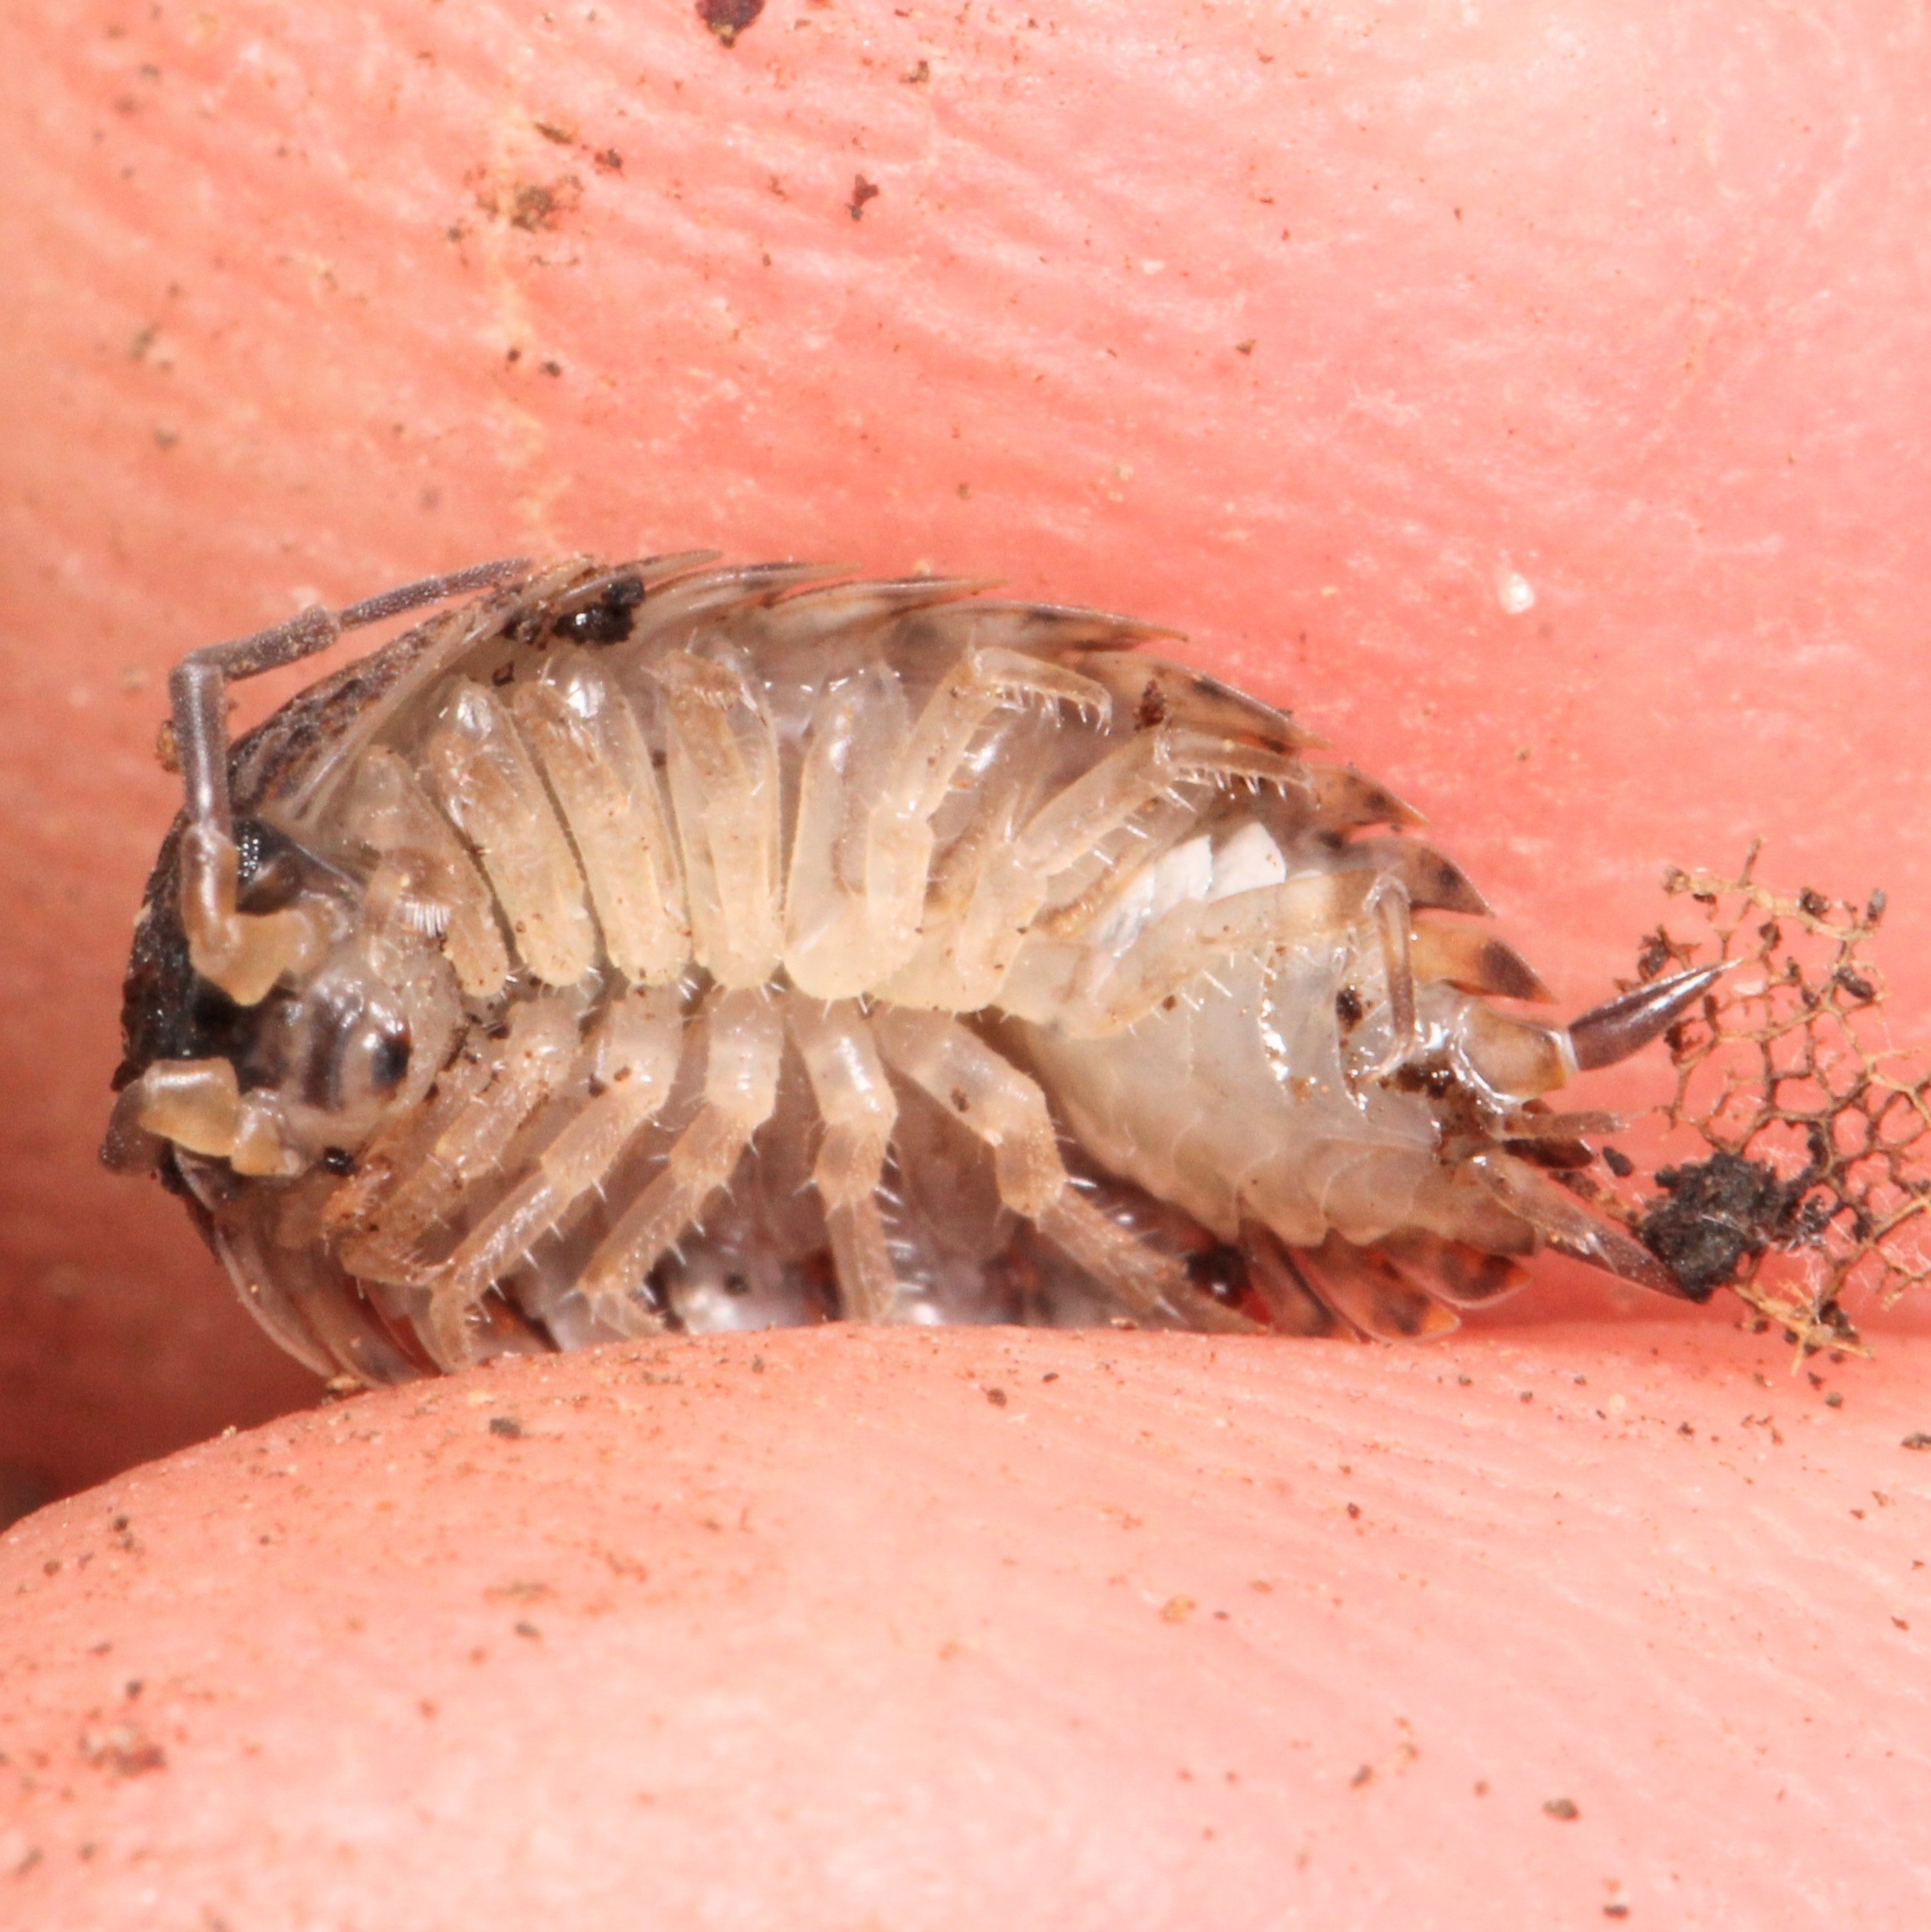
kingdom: Animalia
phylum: Arthropoda
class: Malacostraca
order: Isopoda
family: Trachelipodidae
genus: Trachelipus
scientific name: Trachelipus rathkii
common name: Isopod
